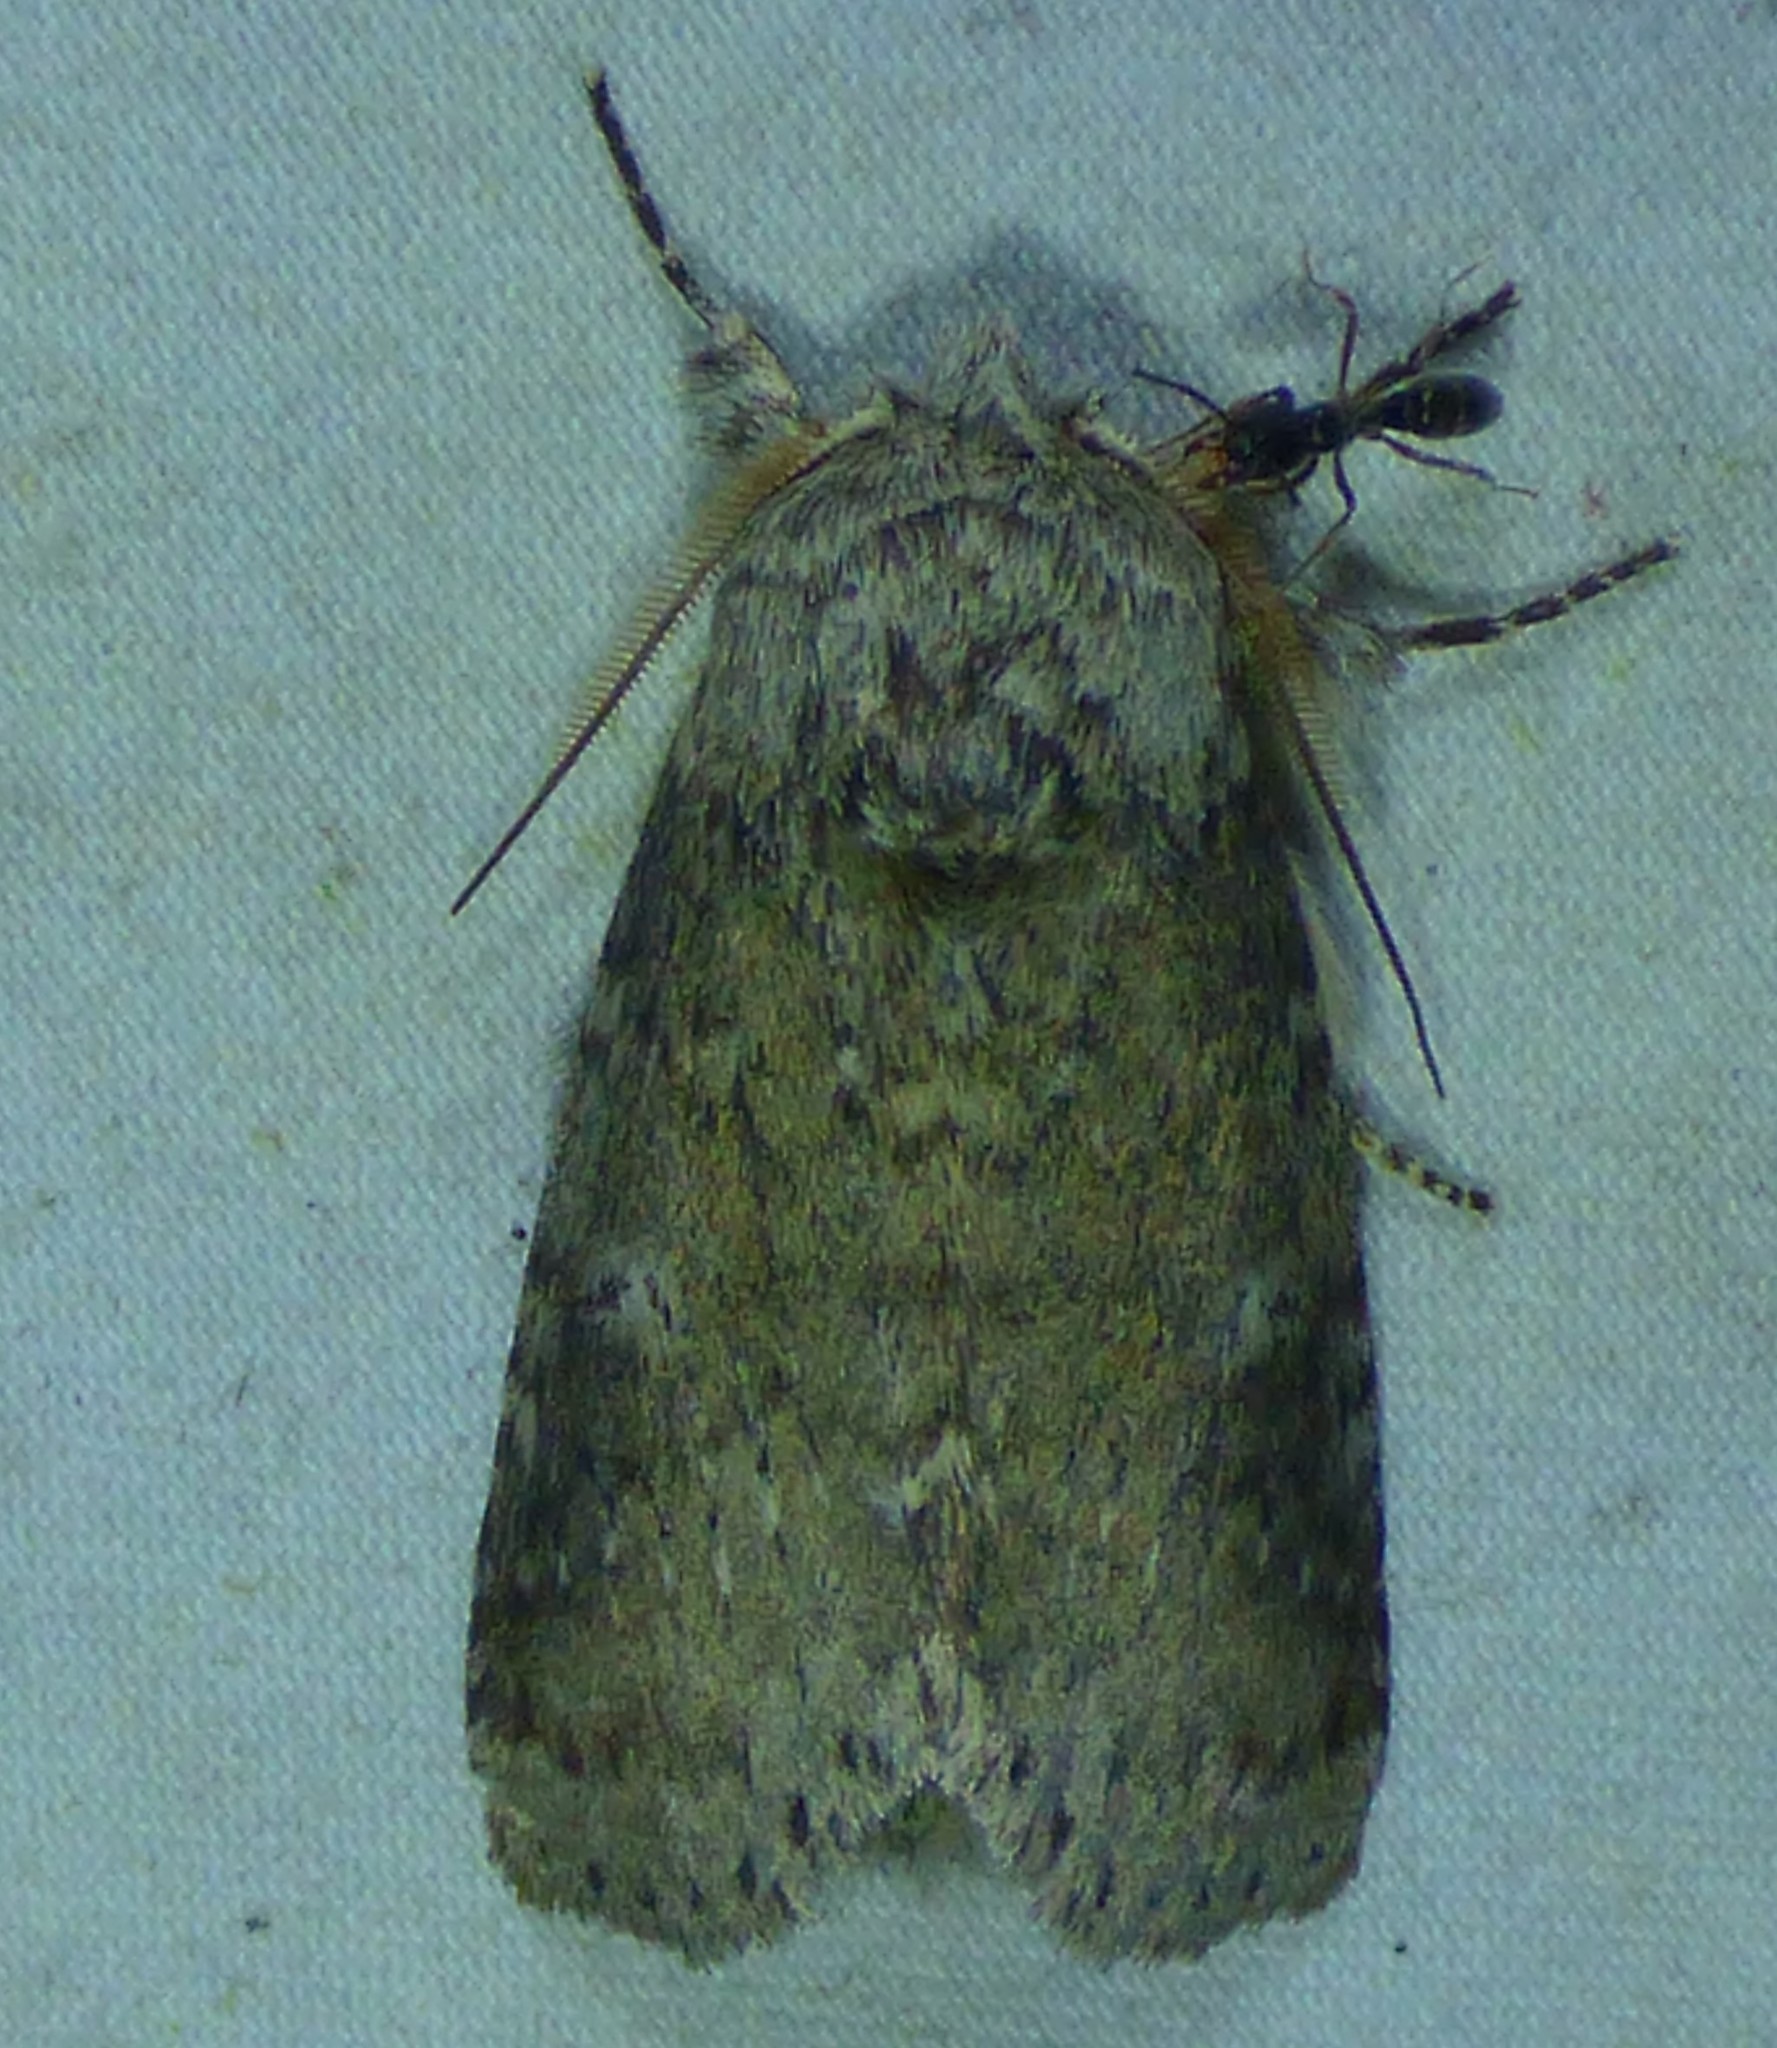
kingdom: Animalia
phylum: Arthropoda
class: Insecta
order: Lepidoptera
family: Notodontidae
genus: Lochmaeus
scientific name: Lochmaeus manteo
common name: Variable oakleaf caterpillar moth
